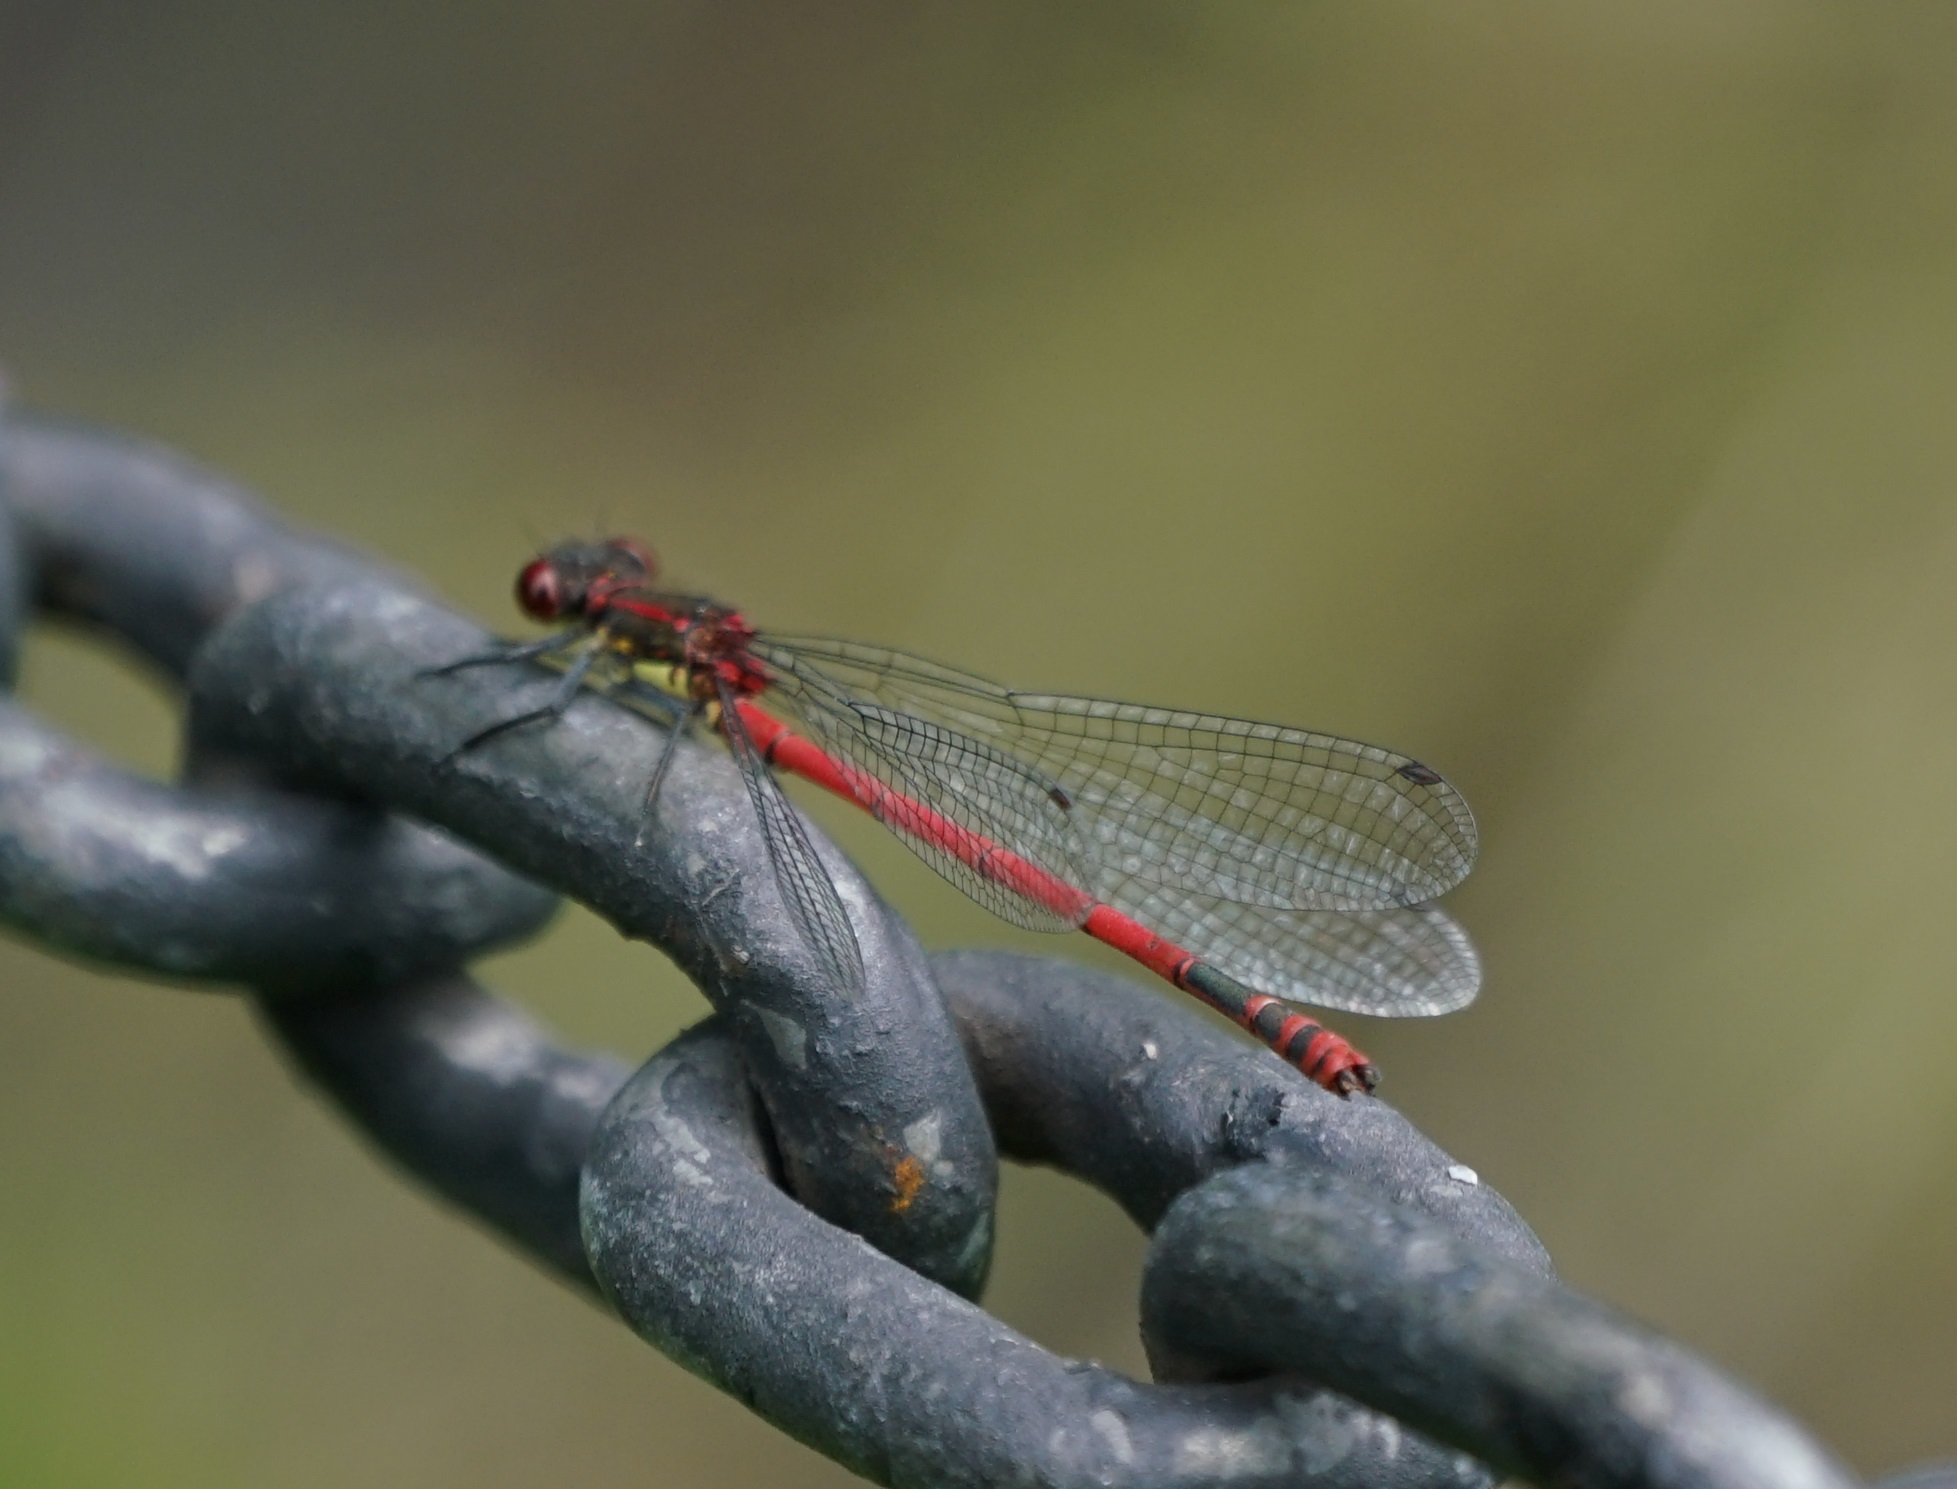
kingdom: Animalia
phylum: Arthropoda
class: Insecta
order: Odonata
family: Coenagrionidae
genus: Pyrrhosoma
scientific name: Pyrrhosoma nymphula
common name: Large red damsel
